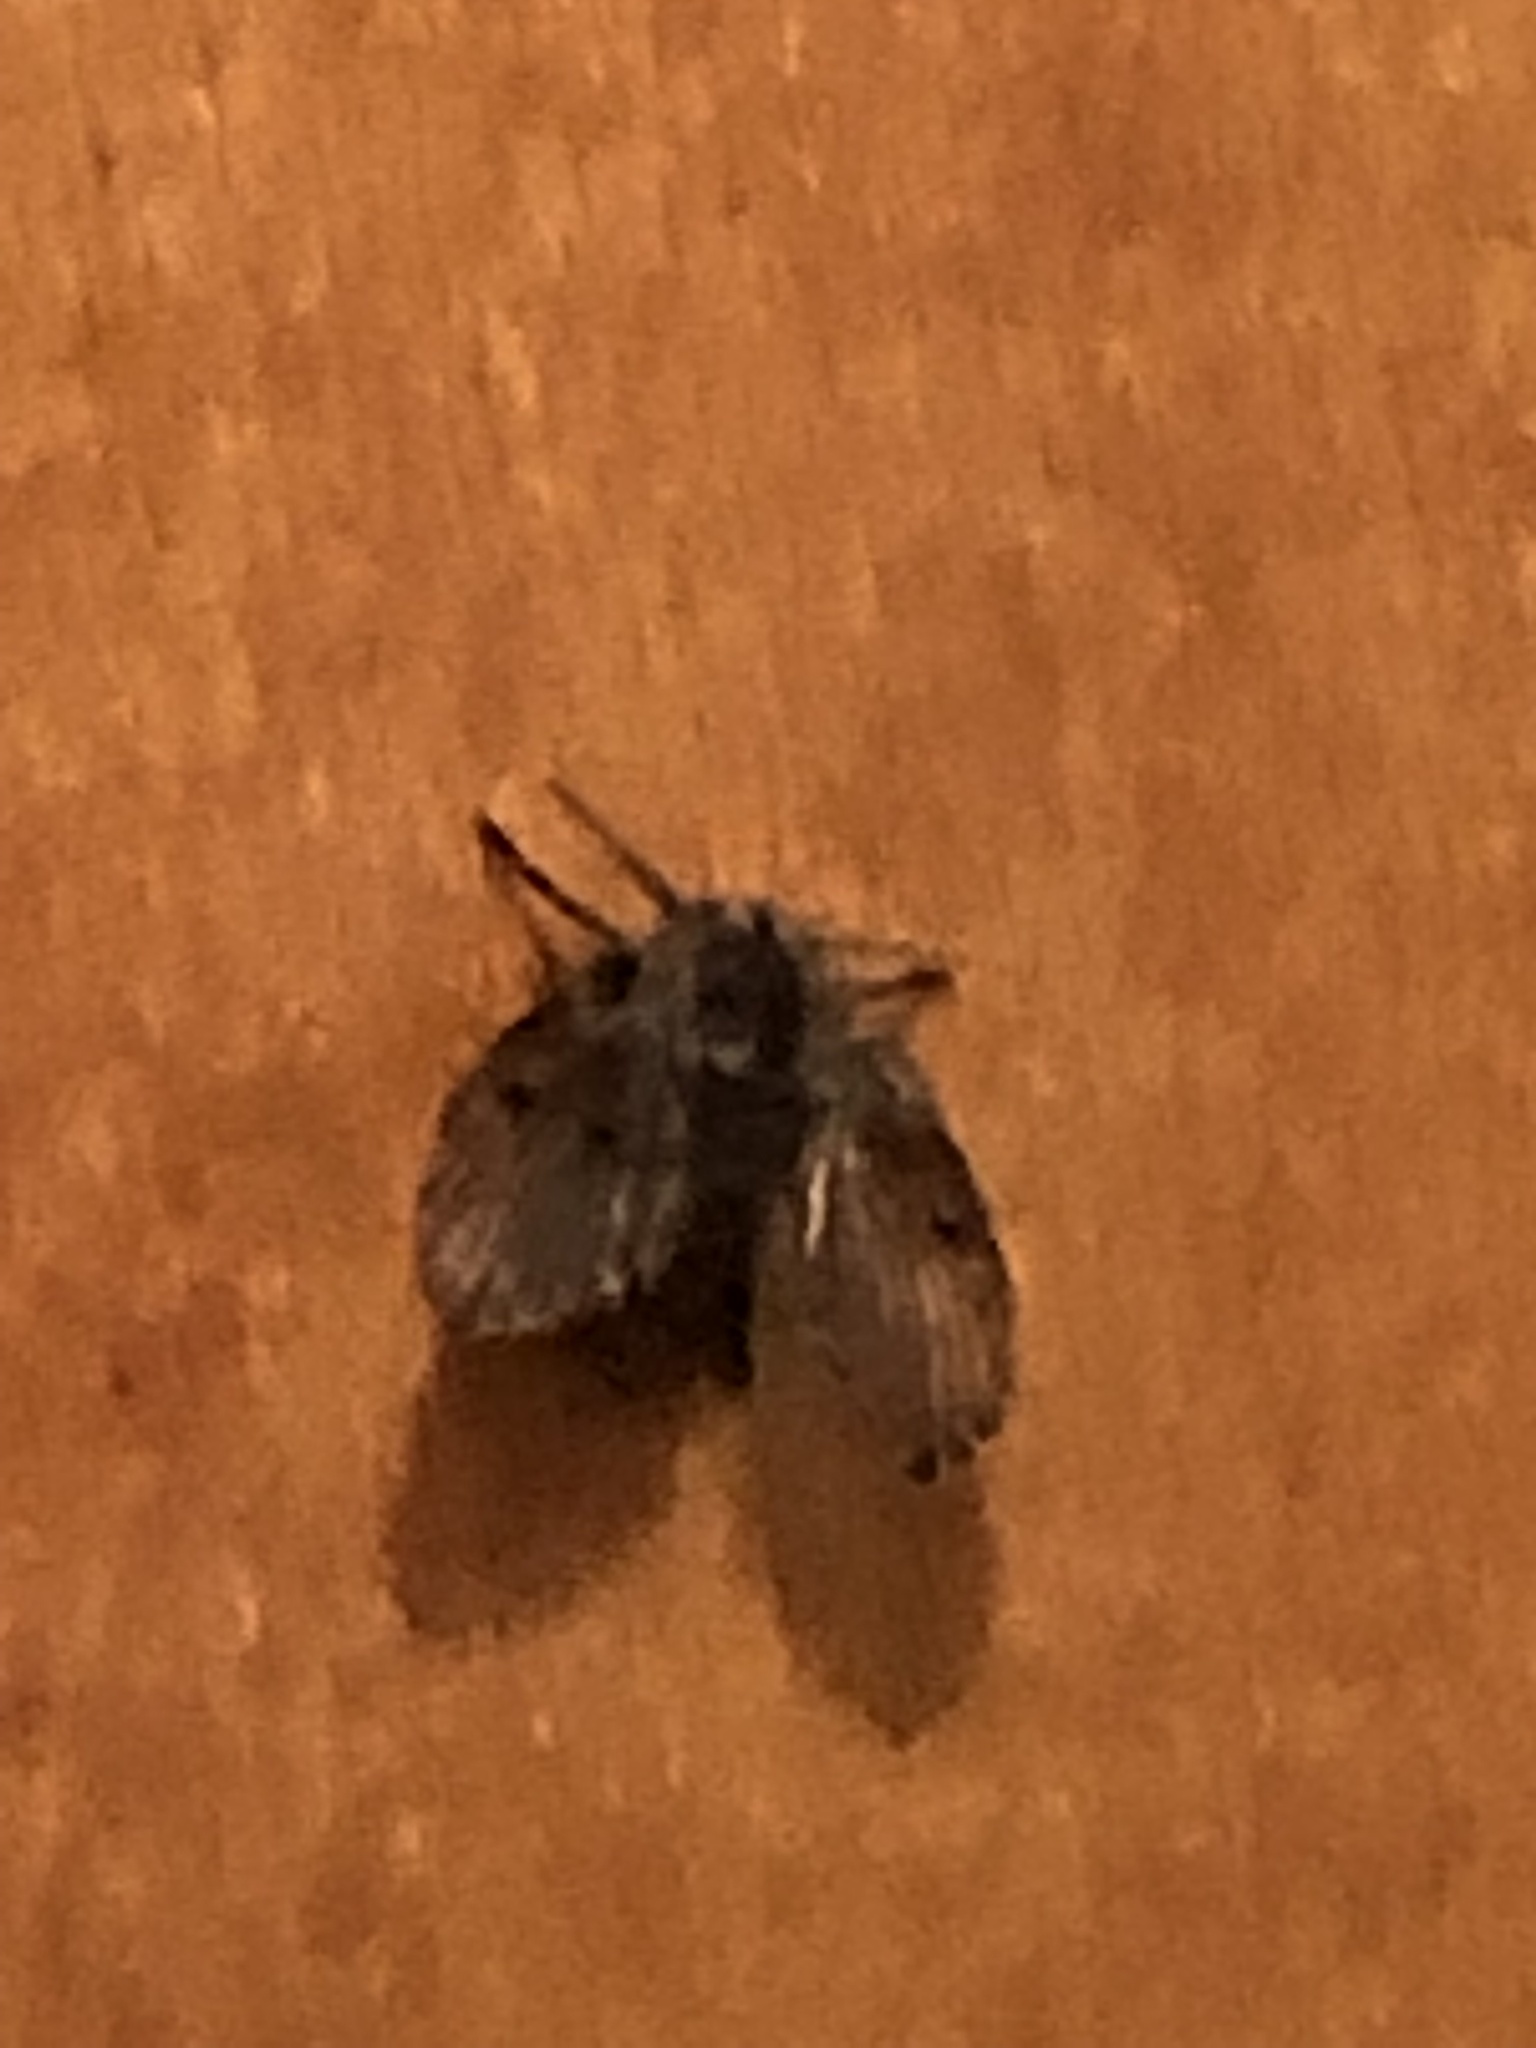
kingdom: Animalia
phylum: Arthropoda
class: Insecta
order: Diptera
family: Psychodidae
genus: Clogmia
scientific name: Clogmia albipunctatus
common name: White-spotted moth fly
